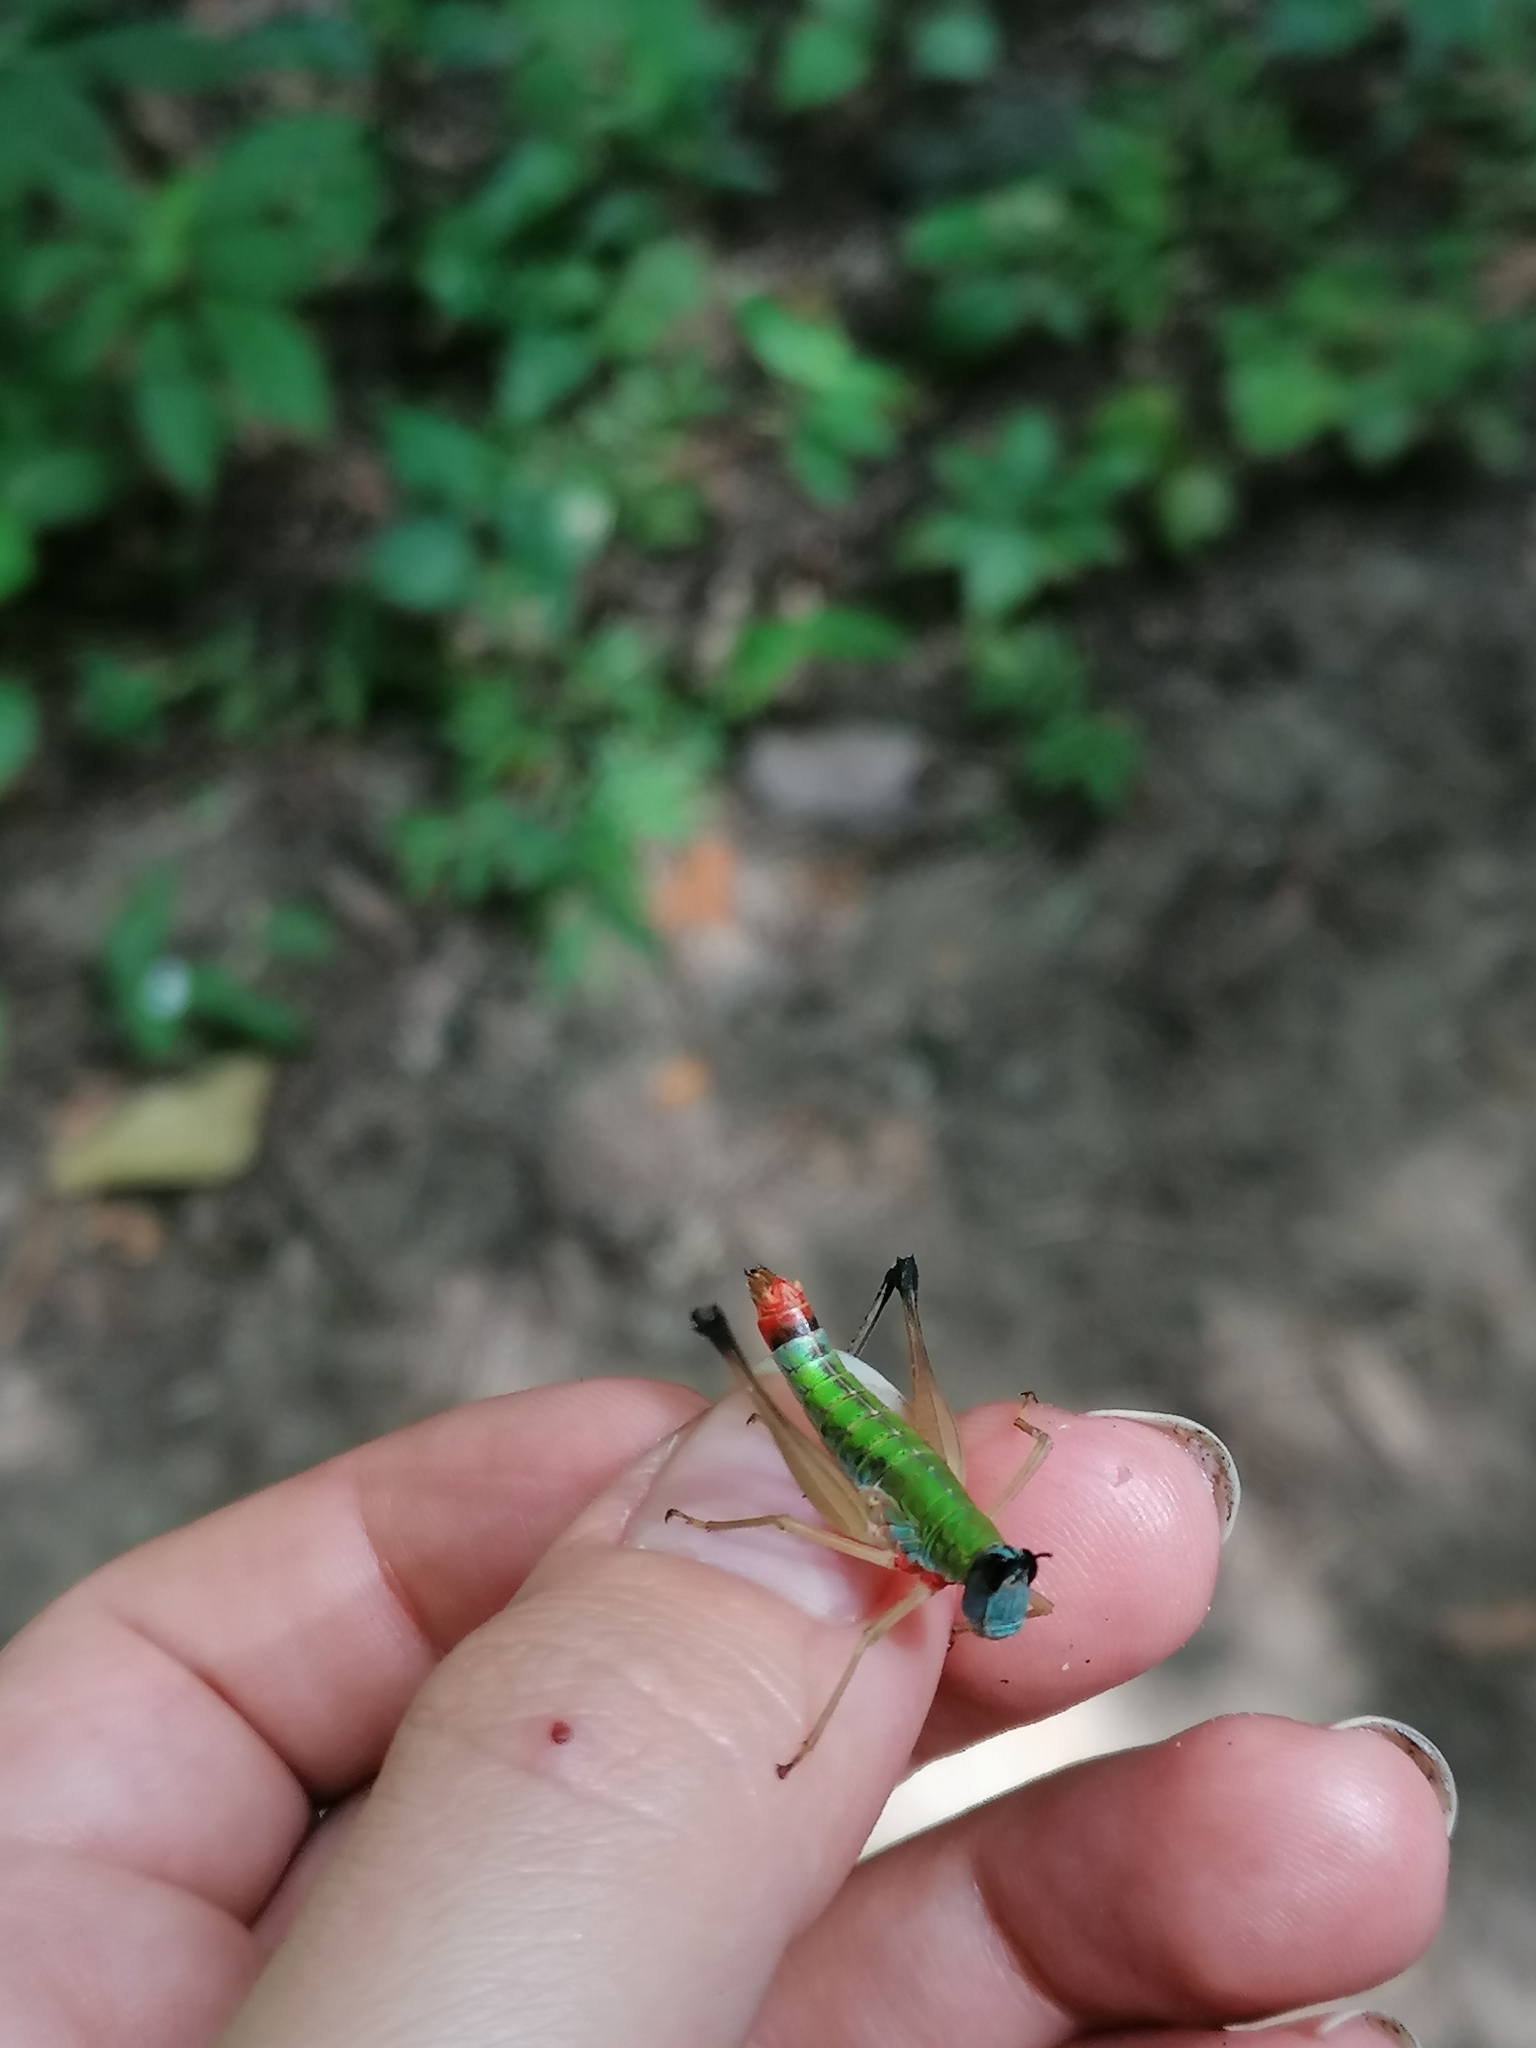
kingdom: Animalia
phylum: Arthropoda
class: Insecta
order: Orthoptera
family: Episactidae
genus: Episactus
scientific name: Episactus brunneri
